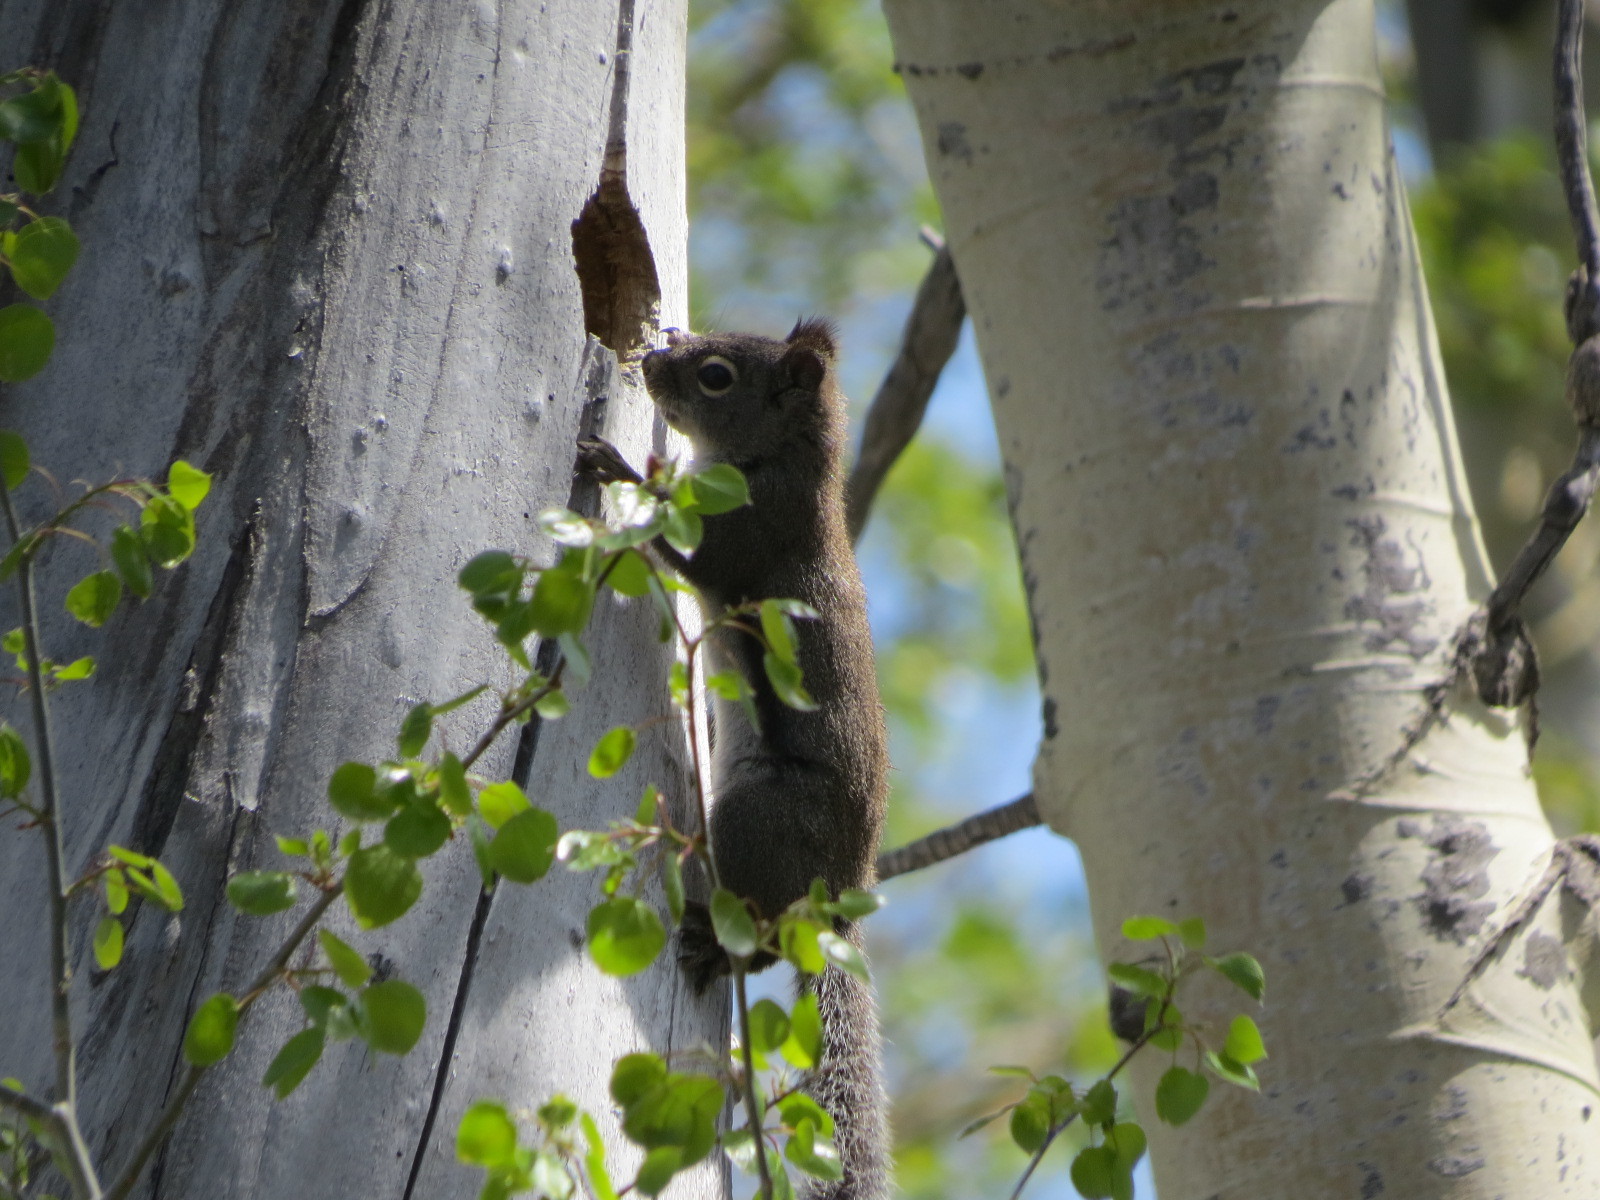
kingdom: Animalia
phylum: Chordata
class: Mammalia
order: Rodentia
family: Sciuridae
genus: Tamiasciurus
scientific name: Tamiasciurus douglasii
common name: Douglas's squirrel
